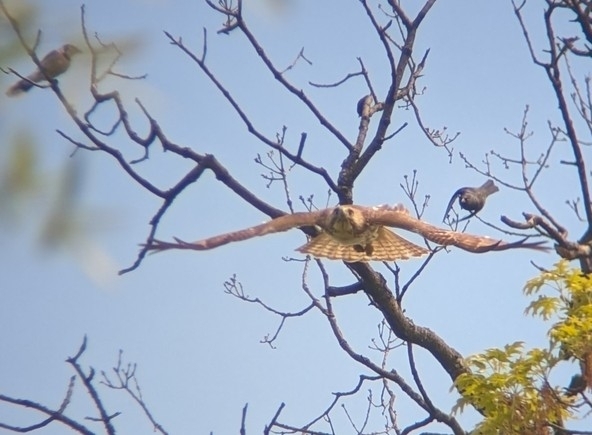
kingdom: Animalia
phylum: Chordata
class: Aves
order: Accipitriformes
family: Accipitridae
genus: Buteo
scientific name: Buteo jamaicensis
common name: Red-tailed hawk
